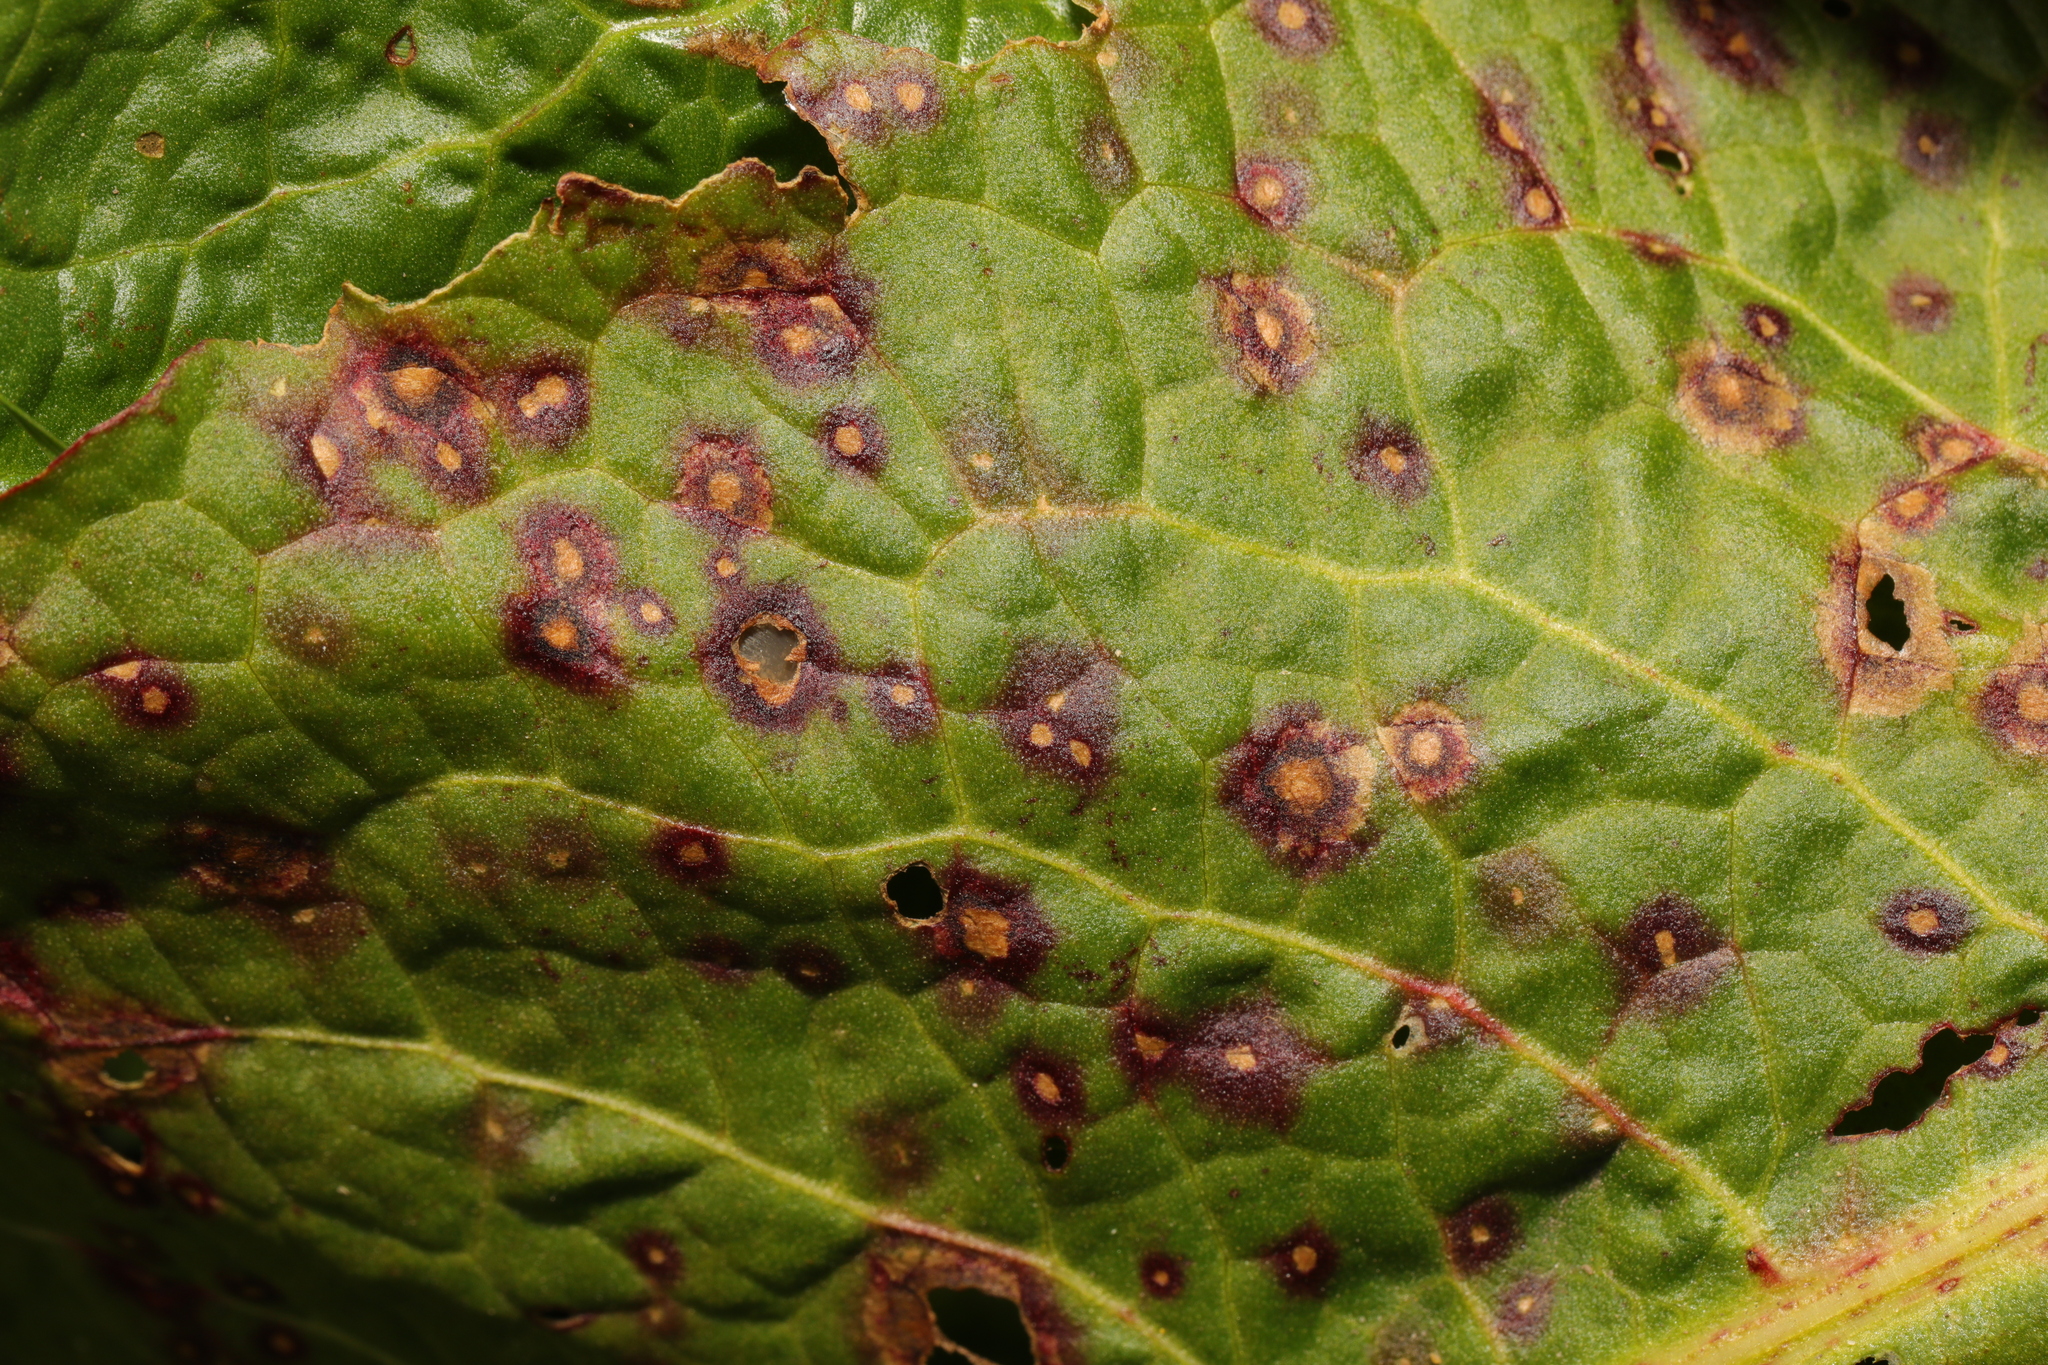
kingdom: Fungi
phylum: Ascomycota
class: Dothideomycetes
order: Mycosphaerellales
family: Mycosphaerellaceae
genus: Ramularia
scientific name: Ramularia rubella
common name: Red dock spot
